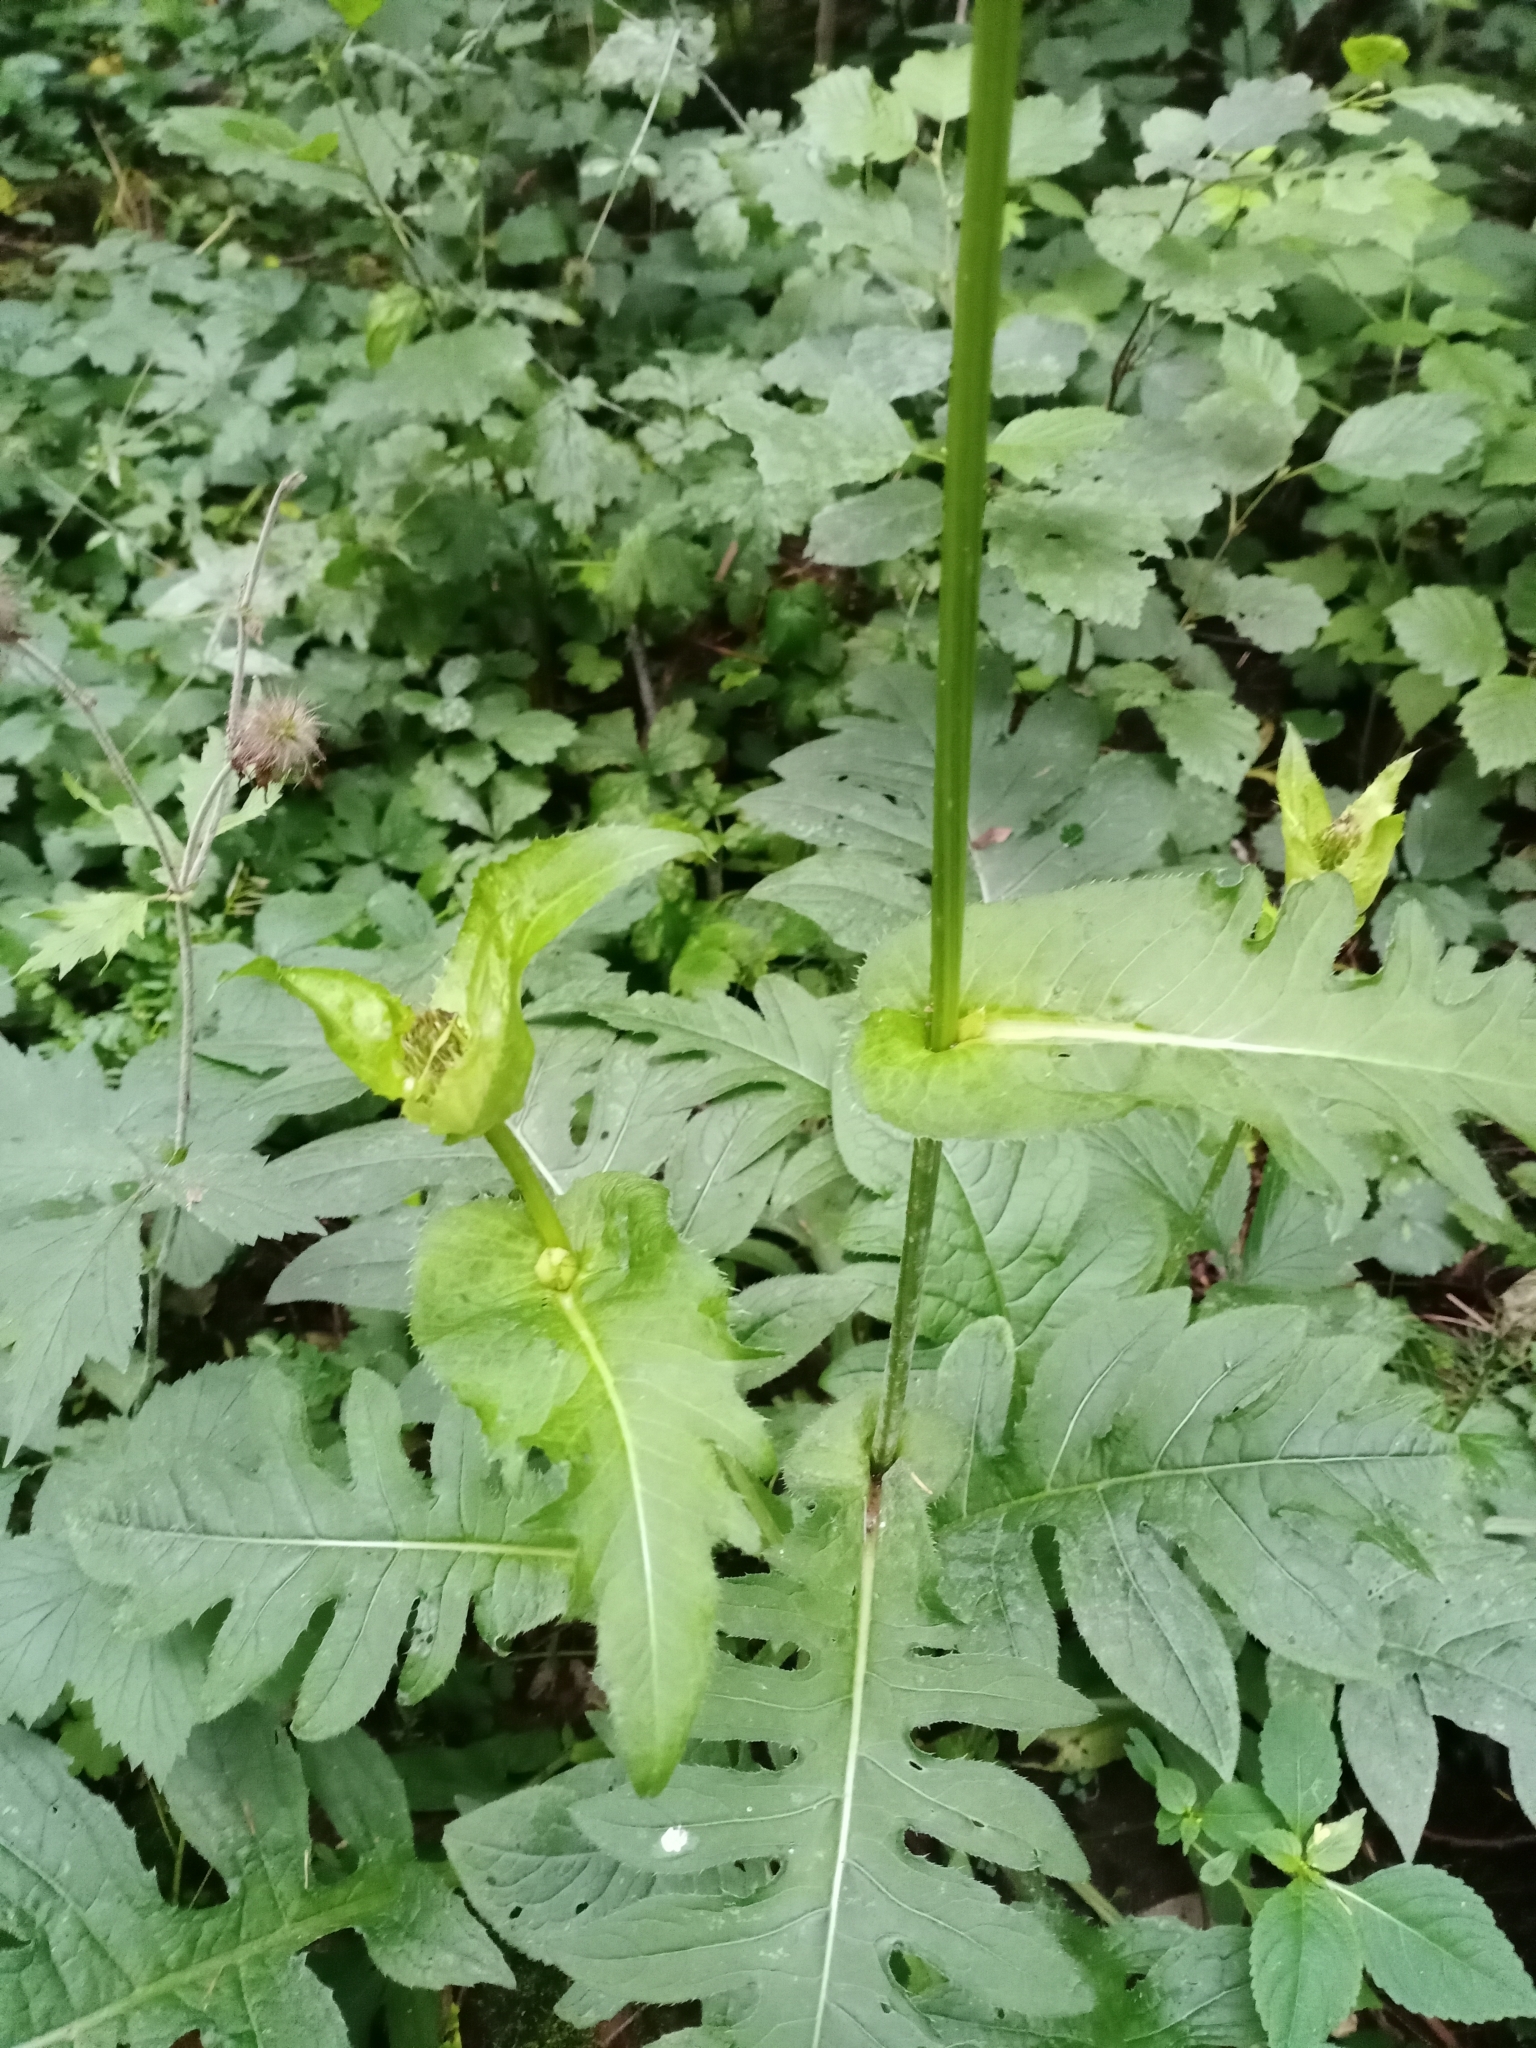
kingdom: Plantae
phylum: Tracheophyta
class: Magnoliopsida
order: Asterales
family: Asteraceae
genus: Cirsium
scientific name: Cirsium oleraceum
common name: Cabbage thistle
